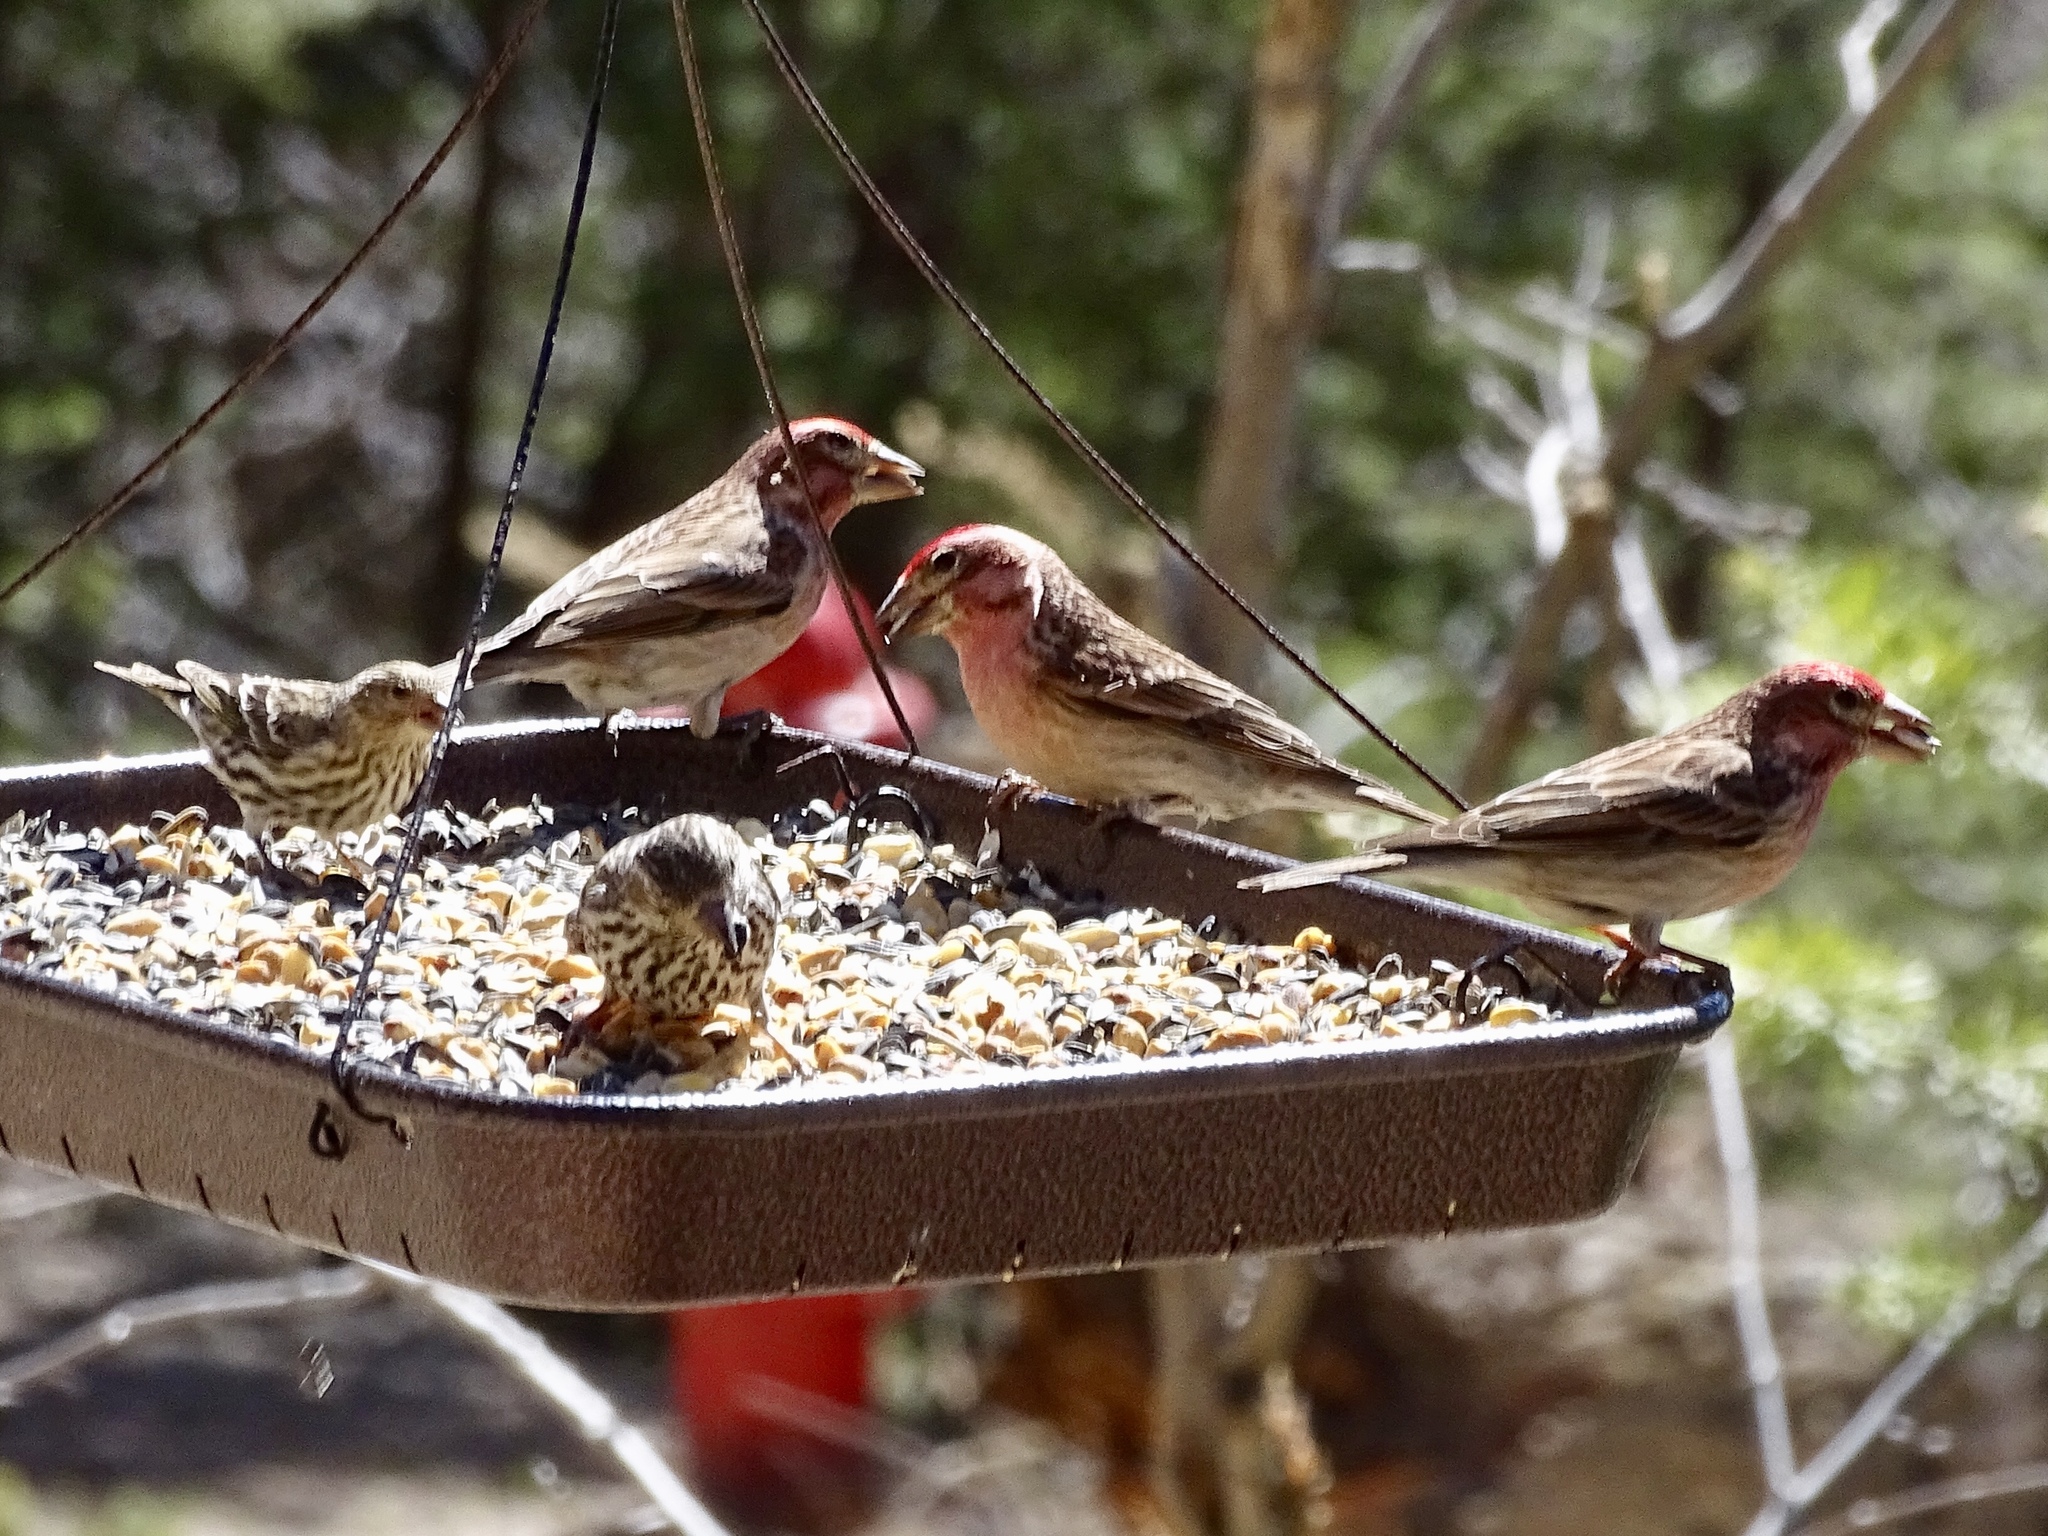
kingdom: Animalia
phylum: Chordata
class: Aves
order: Passeriformes
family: Fringillidae
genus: Haemorhous
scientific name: Haemorhous cassinii
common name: Cassin's finch
